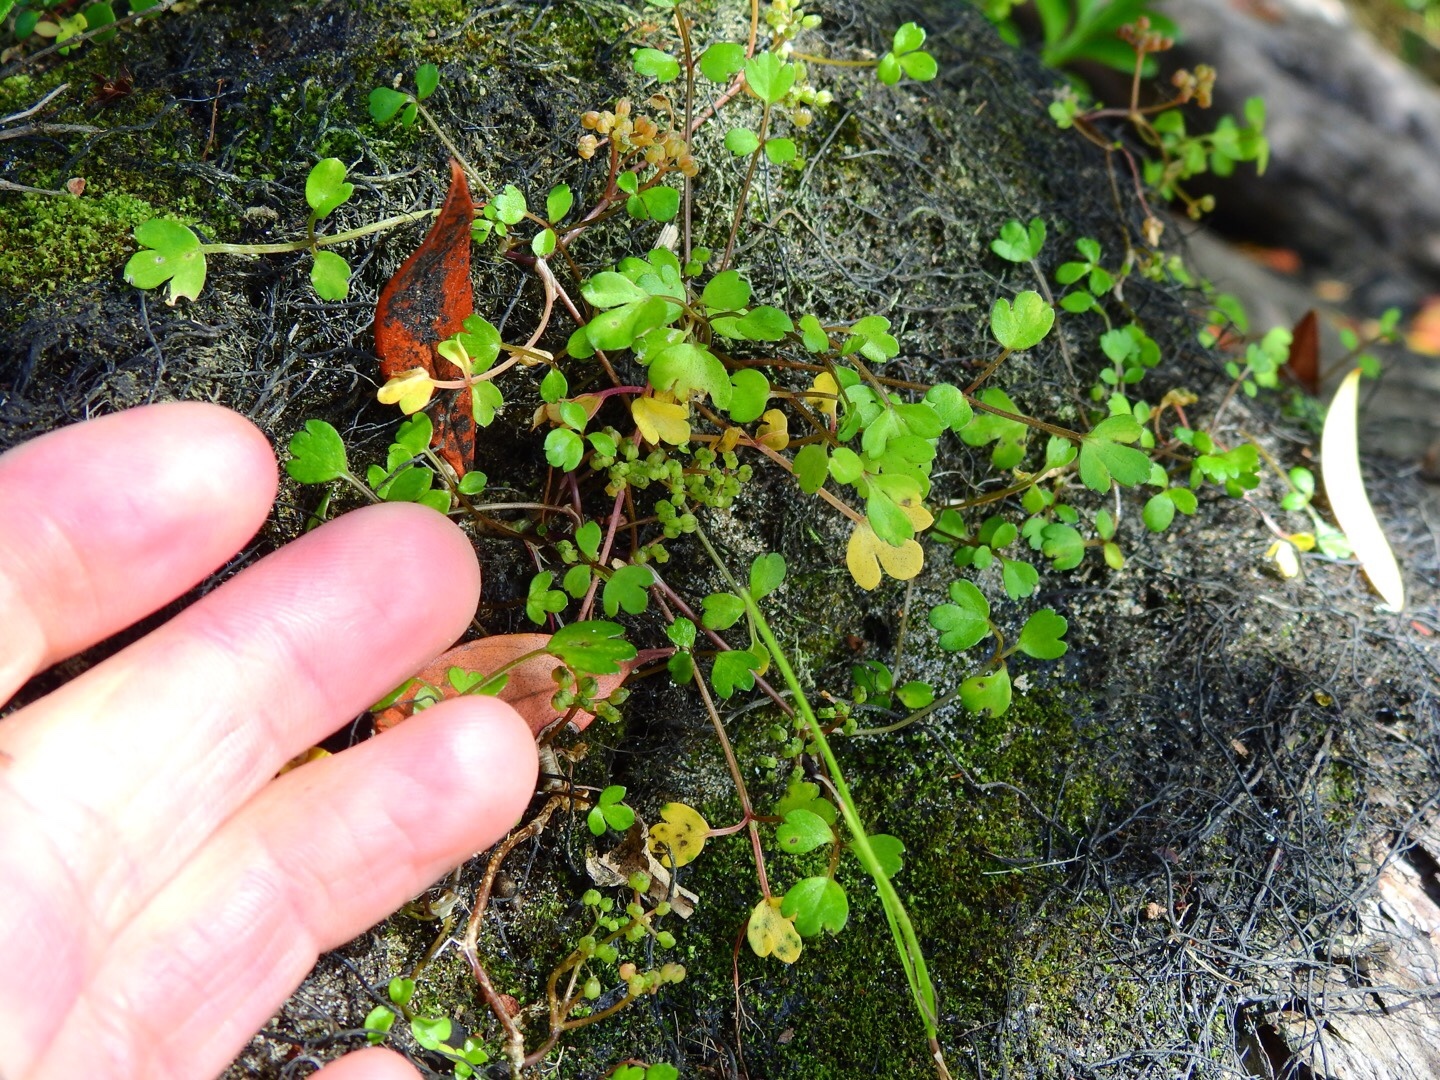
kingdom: Plantae
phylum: Tracheophyta
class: Magnoliopsida
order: Apiales
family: Apiaceae
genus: Apium
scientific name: Apium prostratum
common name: Prostrate marshwort
